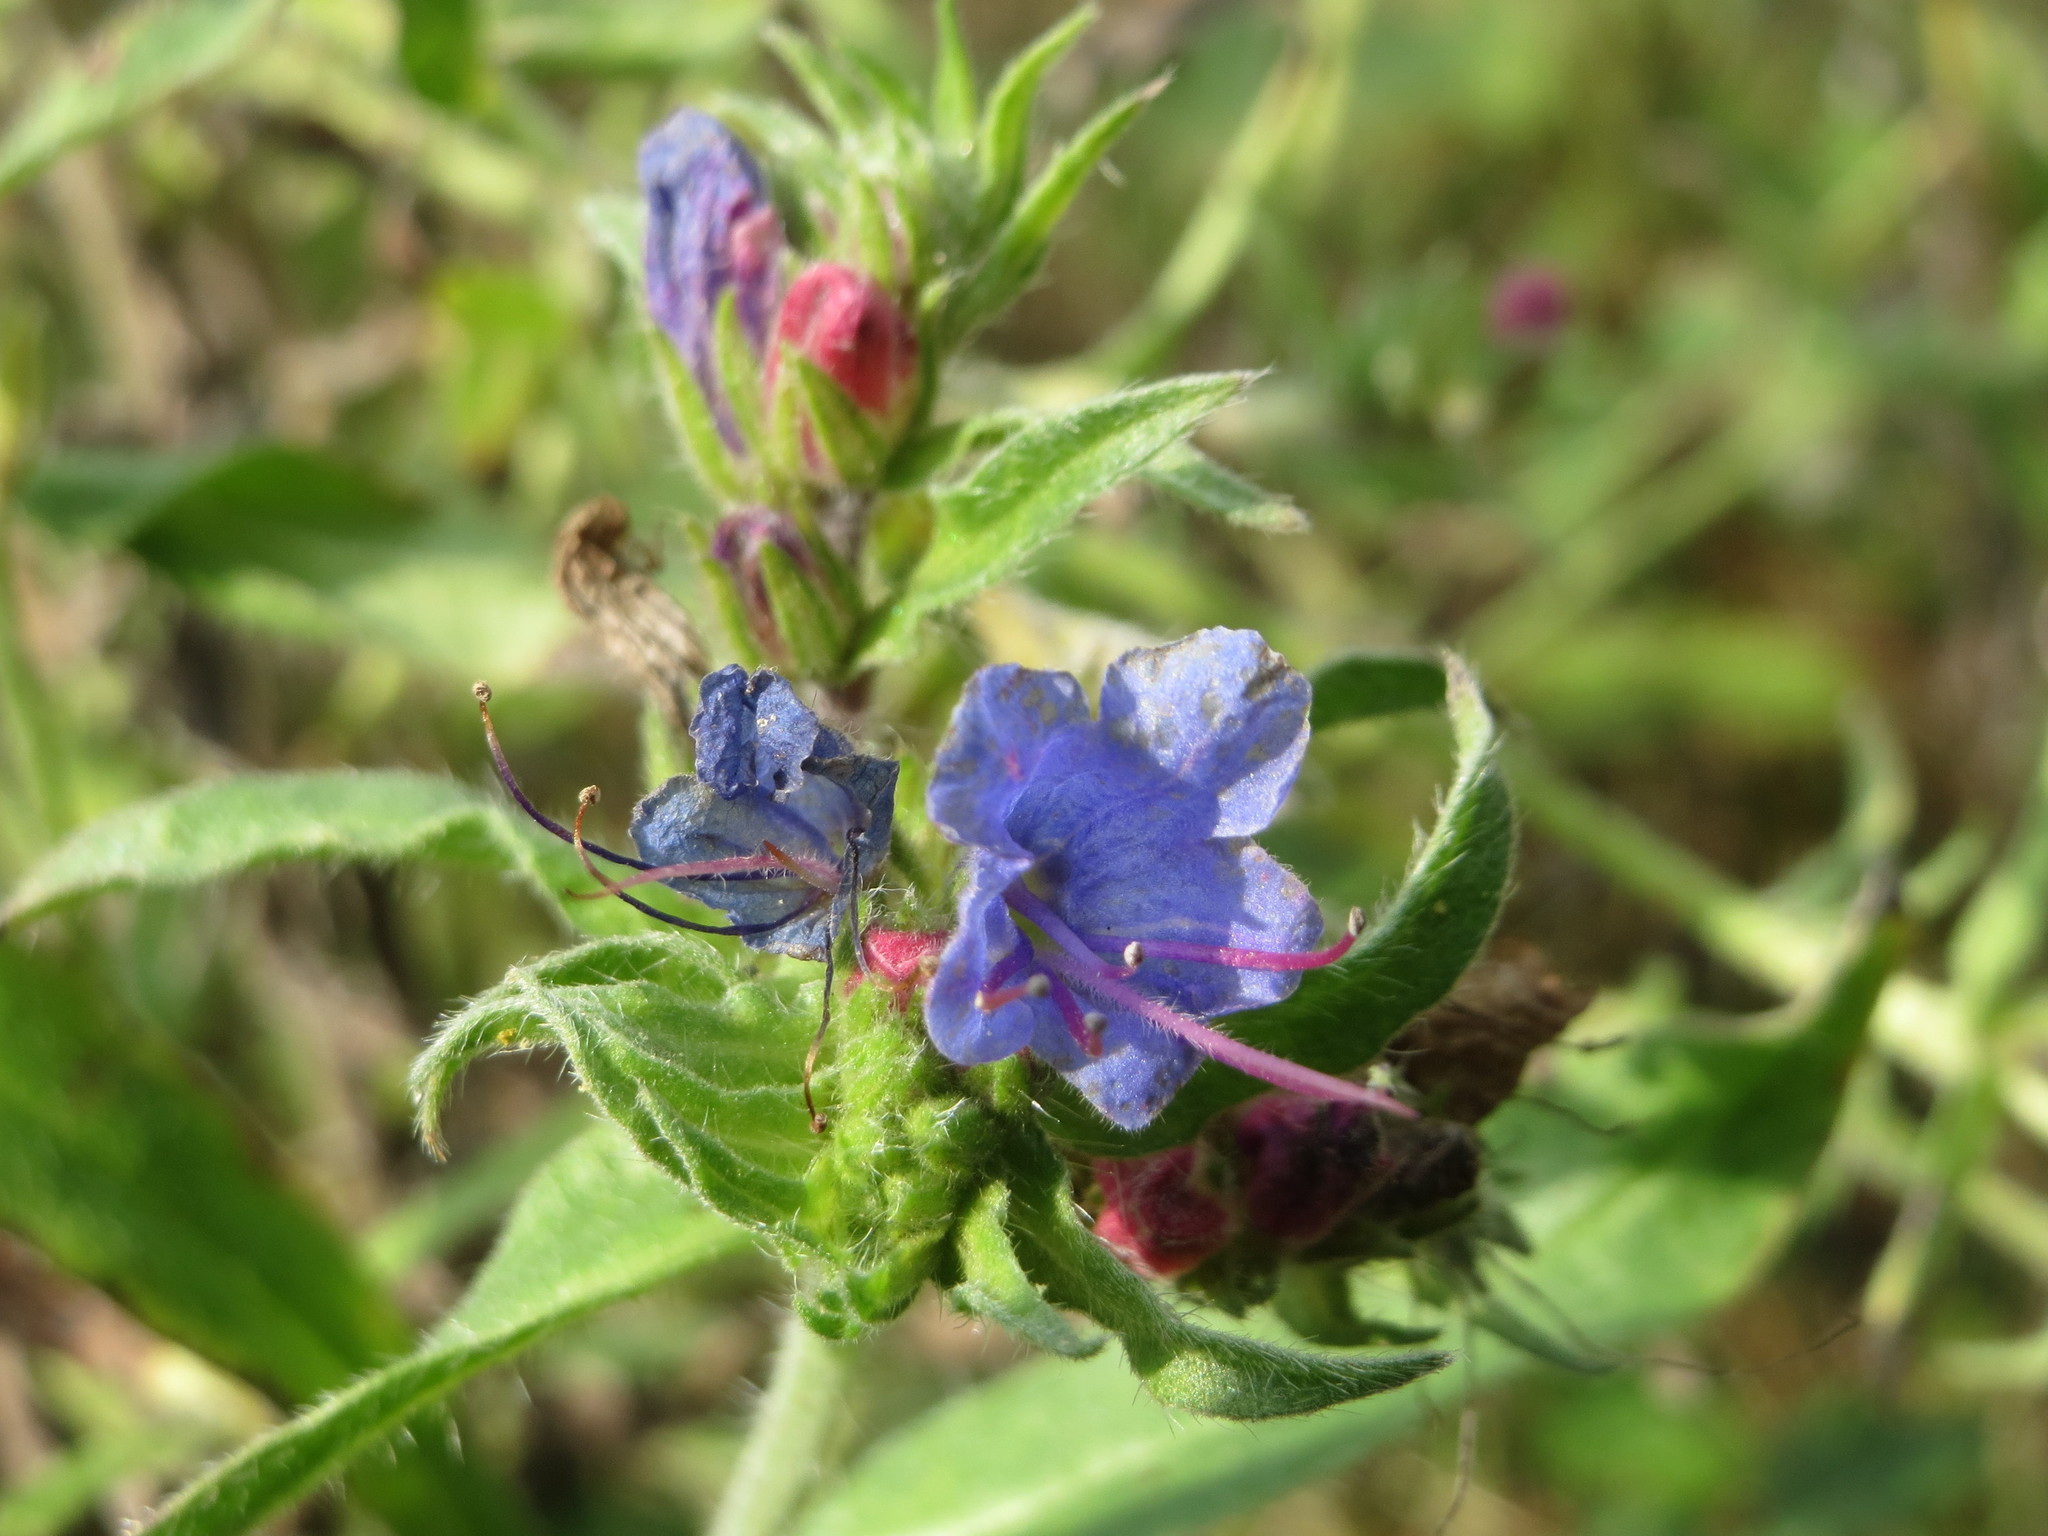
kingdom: Plantae
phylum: Tracheophyta
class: Magnoliopsida
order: Boraginales
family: Boraginaceae
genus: Echium
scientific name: Echium vulgare
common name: Common viper's bugloss
